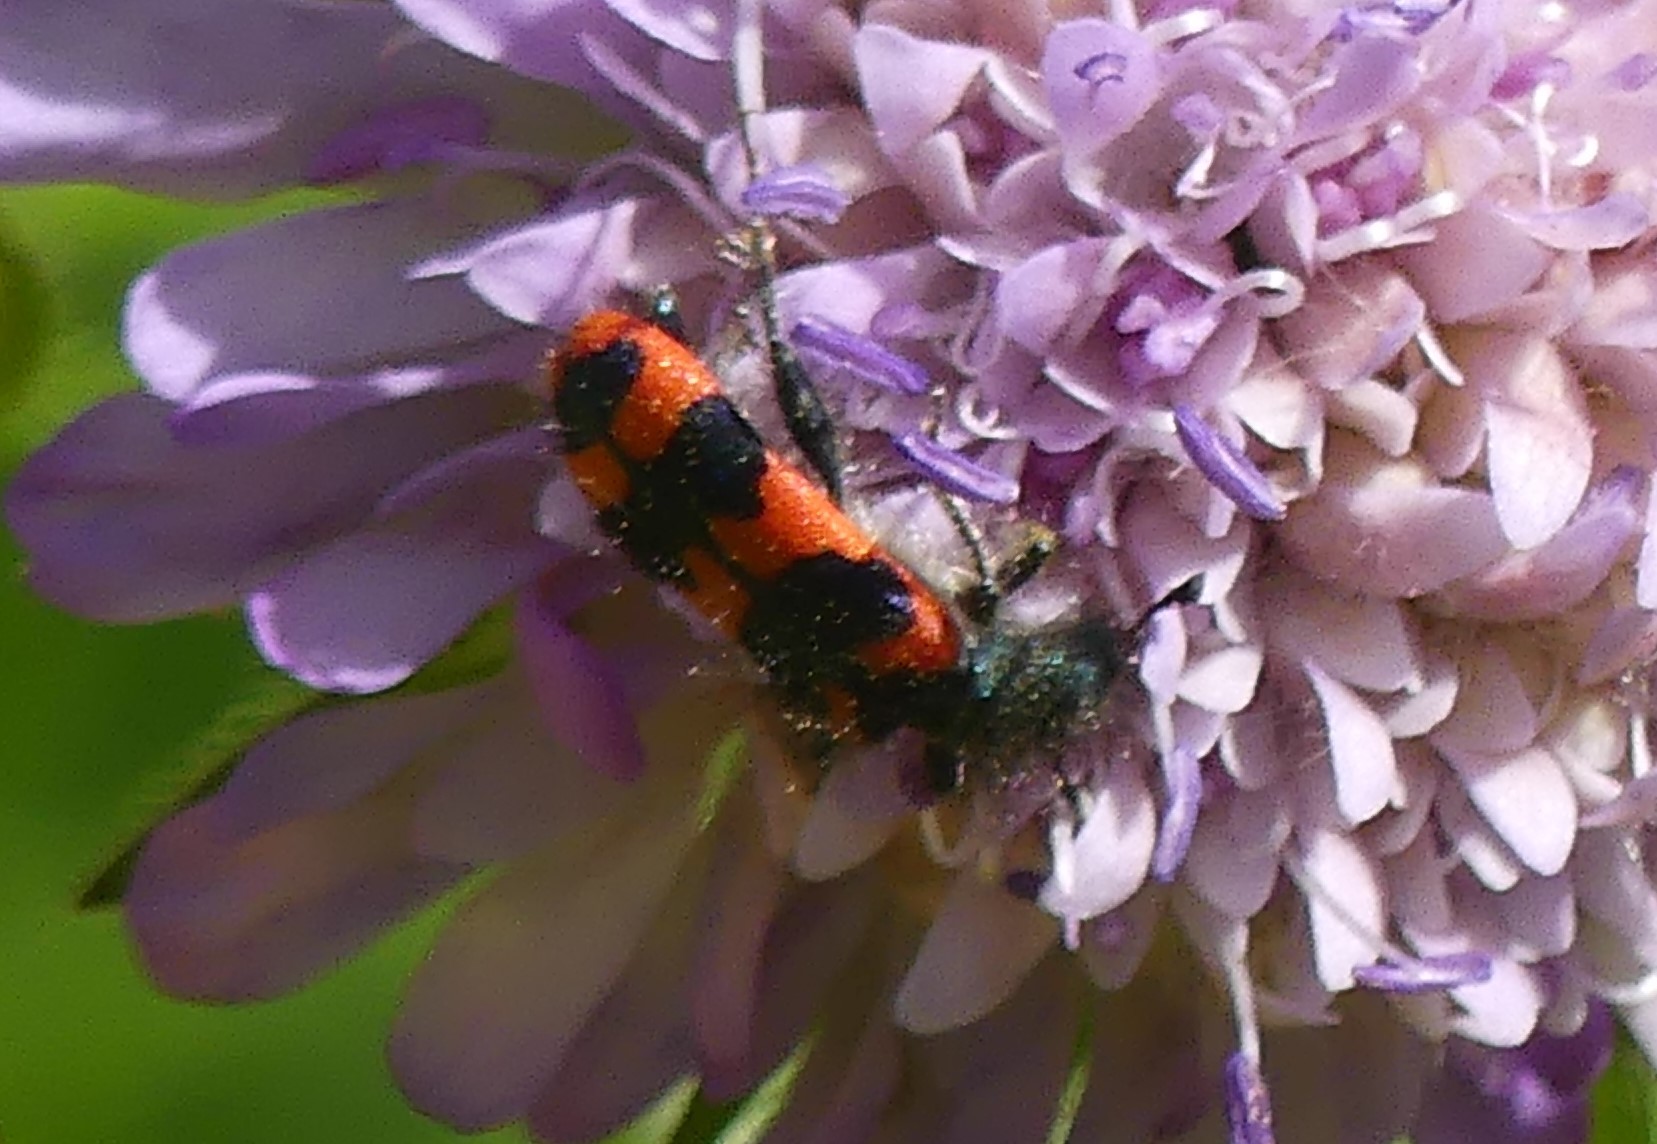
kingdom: Animalia
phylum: Arthropoda
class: Insecta
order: Coleoptera
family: Cleridae
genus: Trichodes
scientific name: Trichodes alvearius
